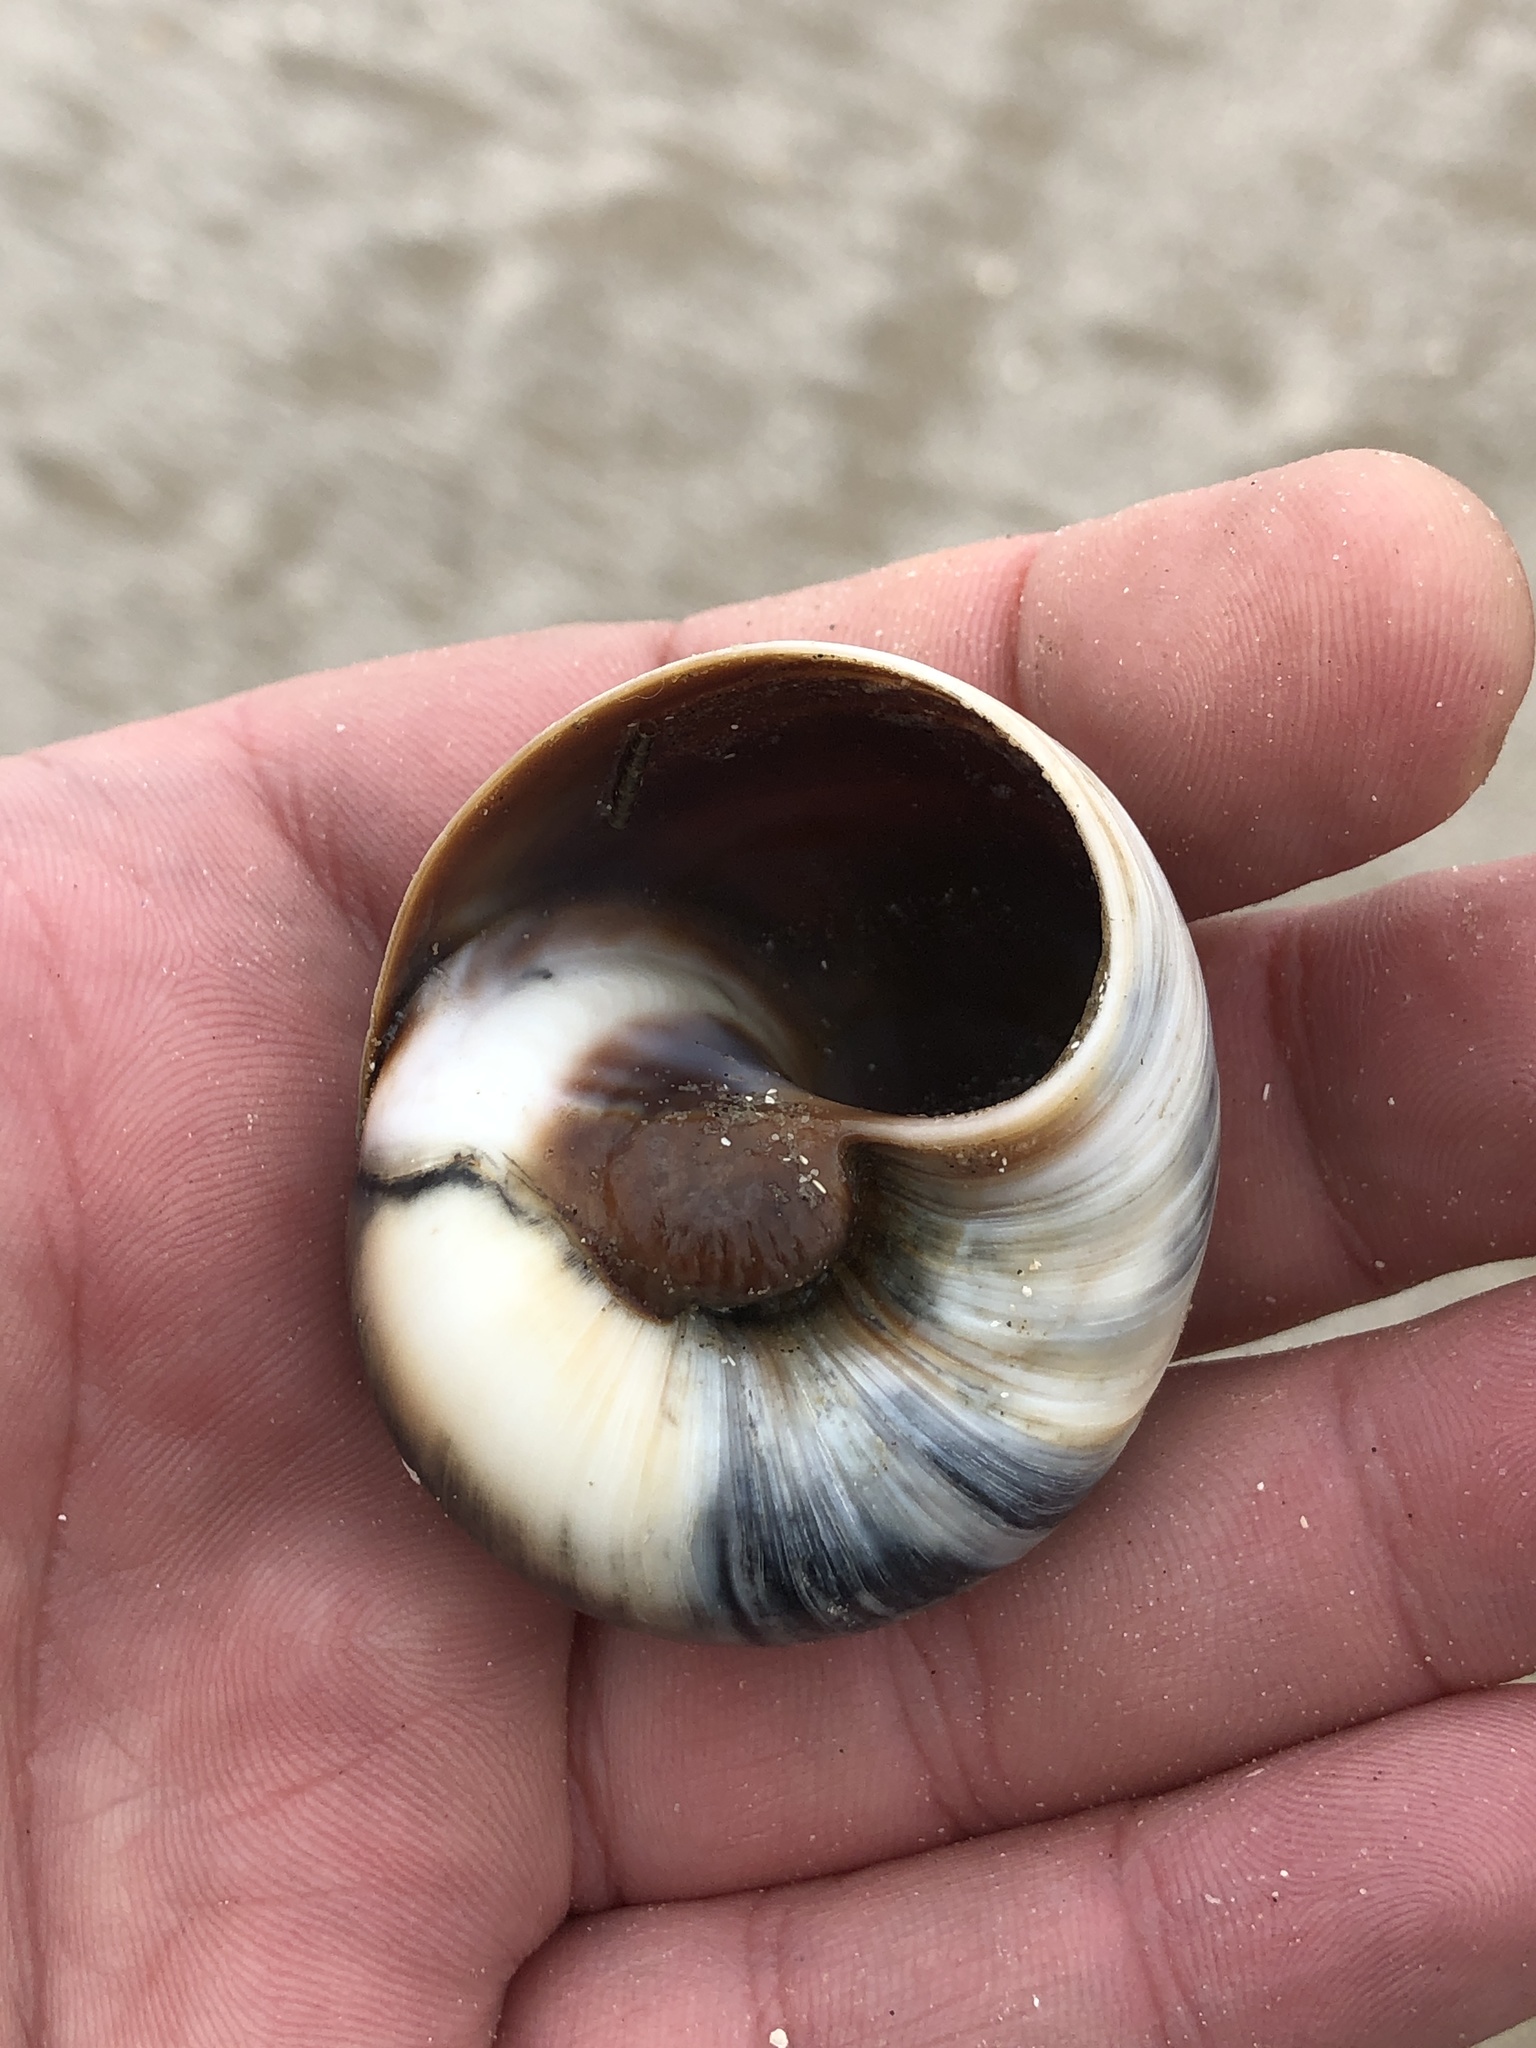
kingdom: Animalia
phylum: Mollusca
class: Gastropoda
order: Littorinimorpha
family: Naticidae
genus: Neverita
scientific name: Neverita duplicata
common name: Lobed moonsnail
